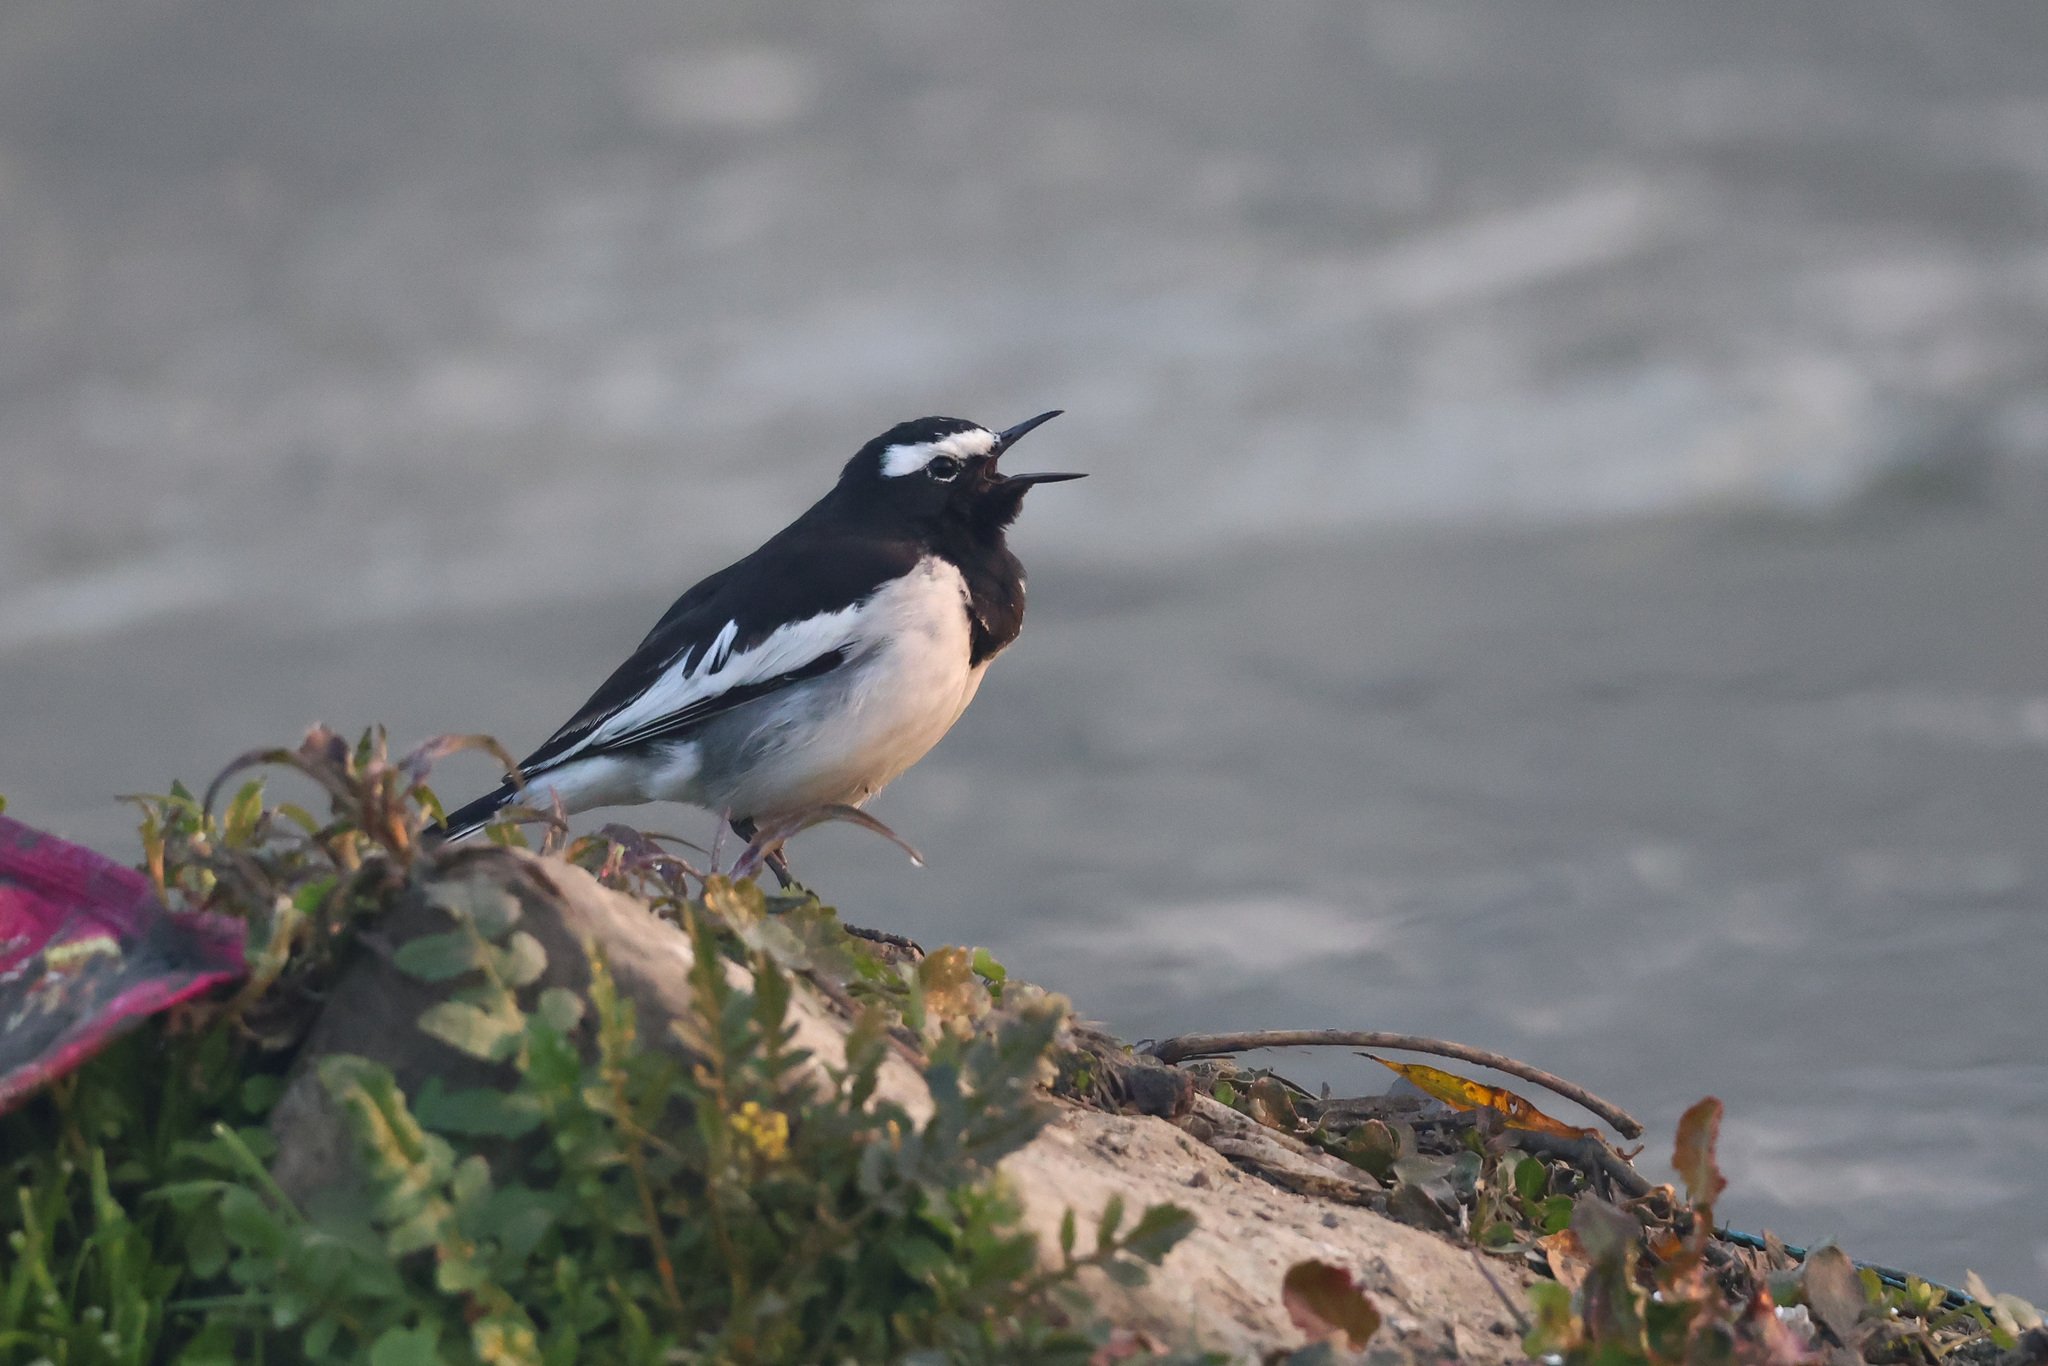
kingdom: Animalia
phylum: Chordata
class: Aves
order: Passeriformes
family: Motacillidae
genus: Motacilla
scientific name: Motacilla maderaspatensis
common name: White-browed wagtail
